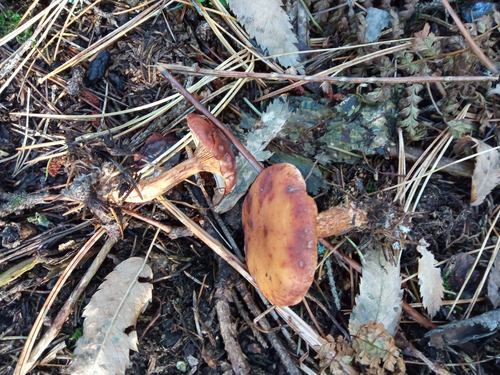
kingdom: Fungi
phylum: Basidiomycota
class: Agaricomycetes
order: Agaricales
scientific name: Agaricales
